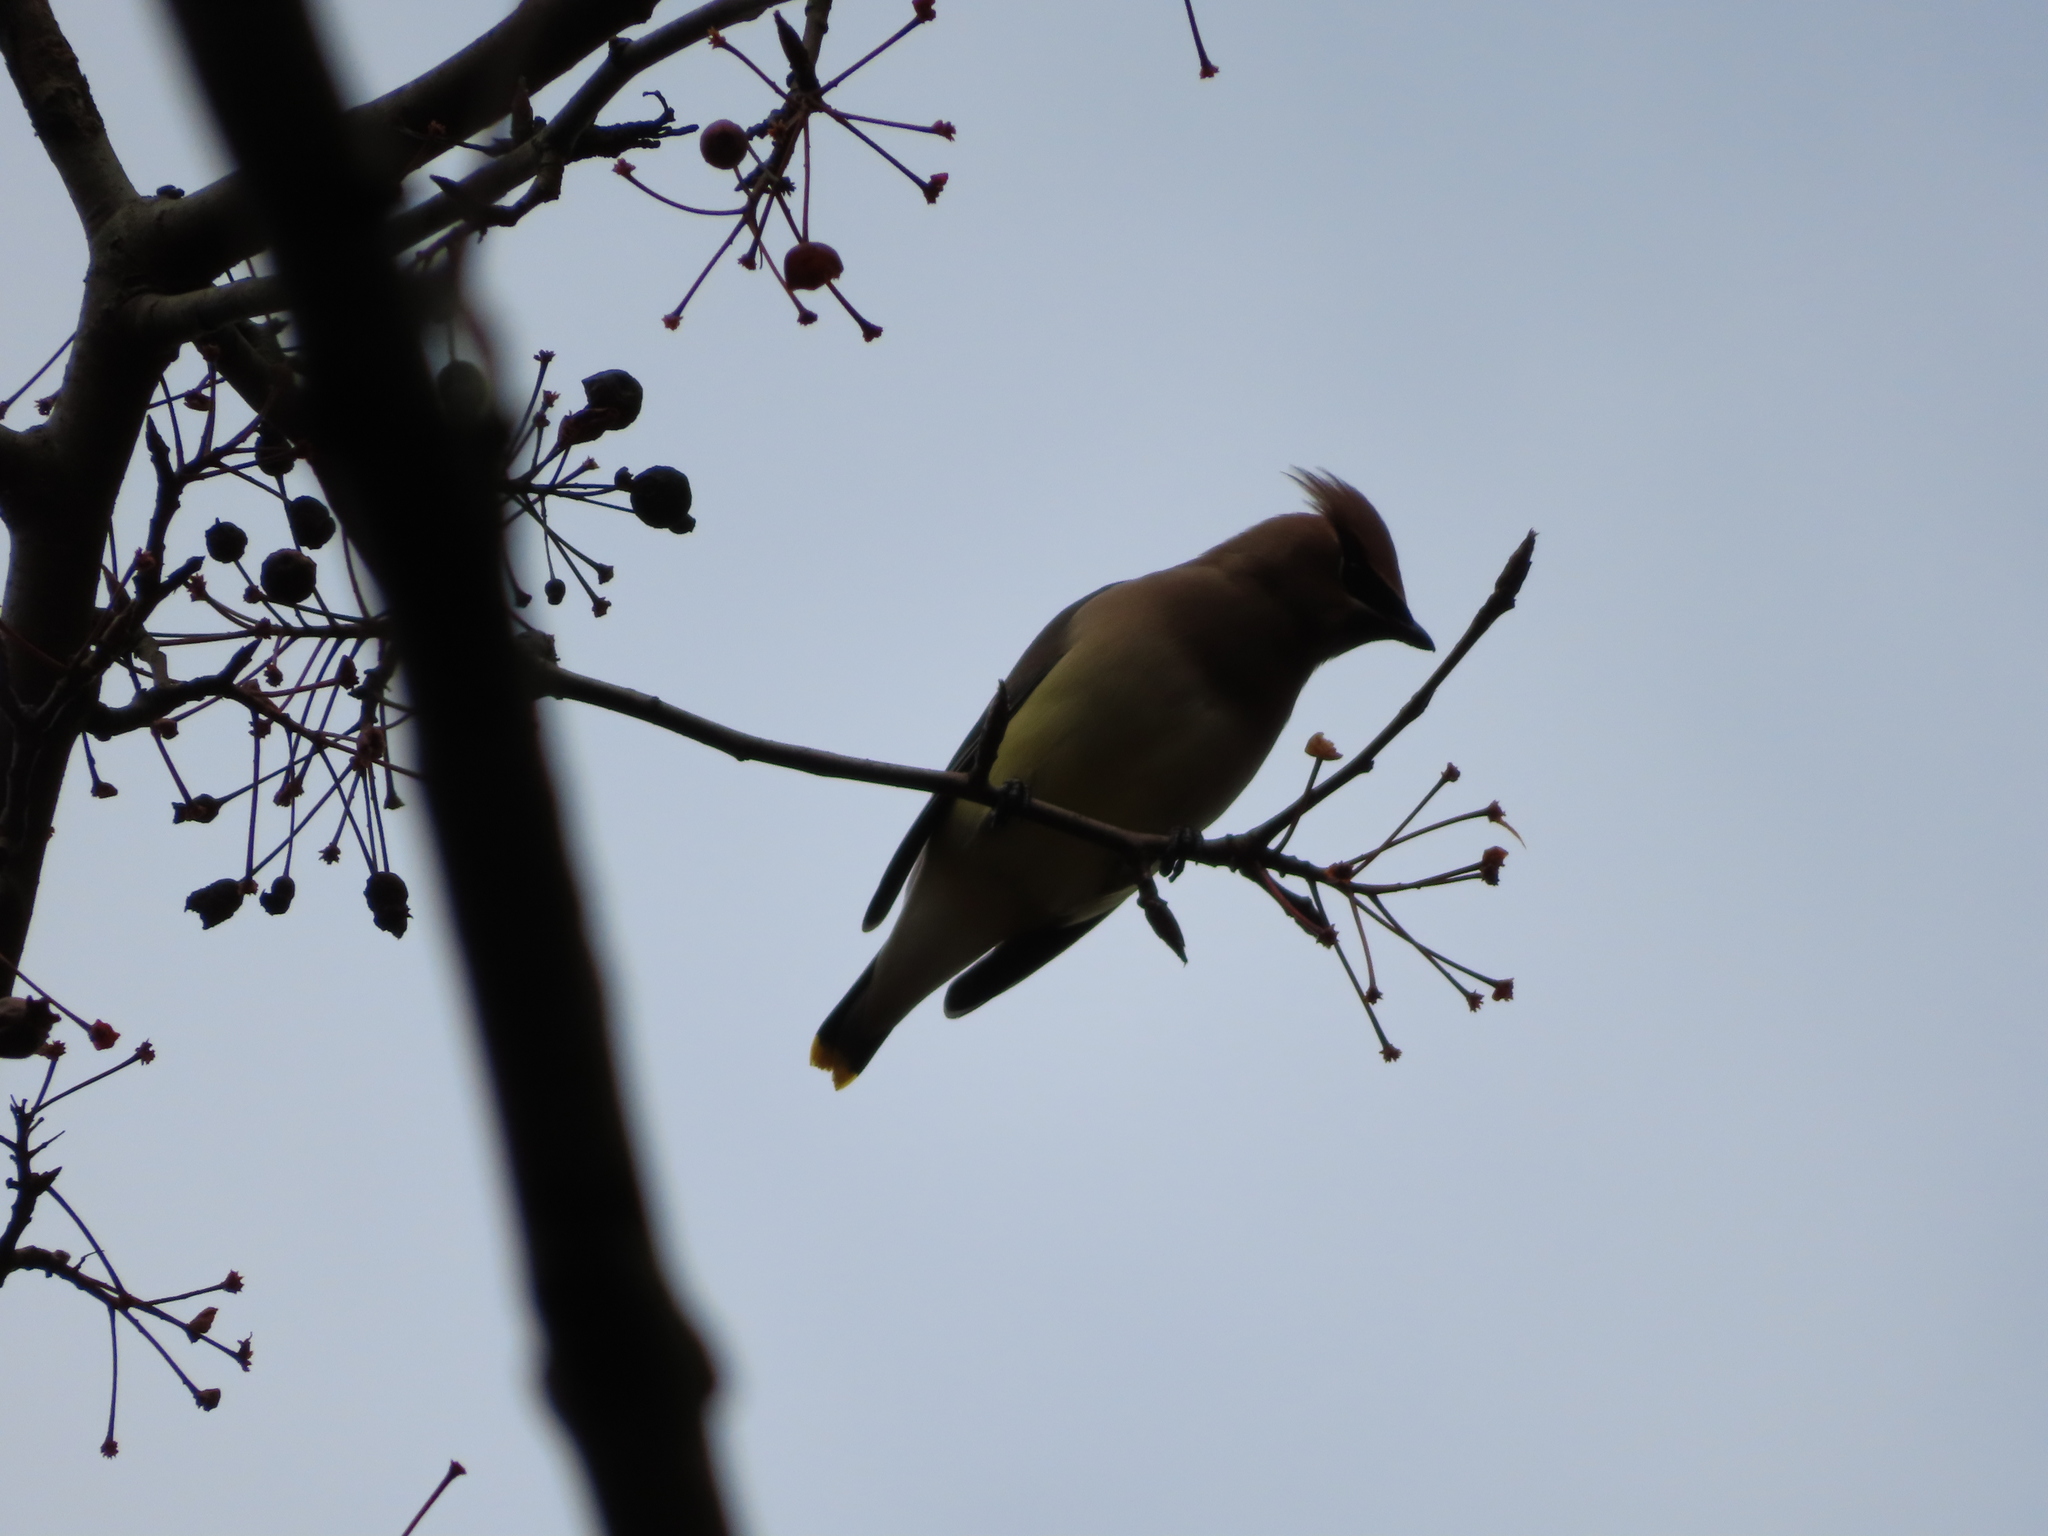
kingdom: Animalia
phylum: Chordata
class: Aves
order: Passeriformes
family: Bombycillidae
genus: Bombycilla
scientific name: Bombycilla cedrorum
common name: Cedar waxwing
